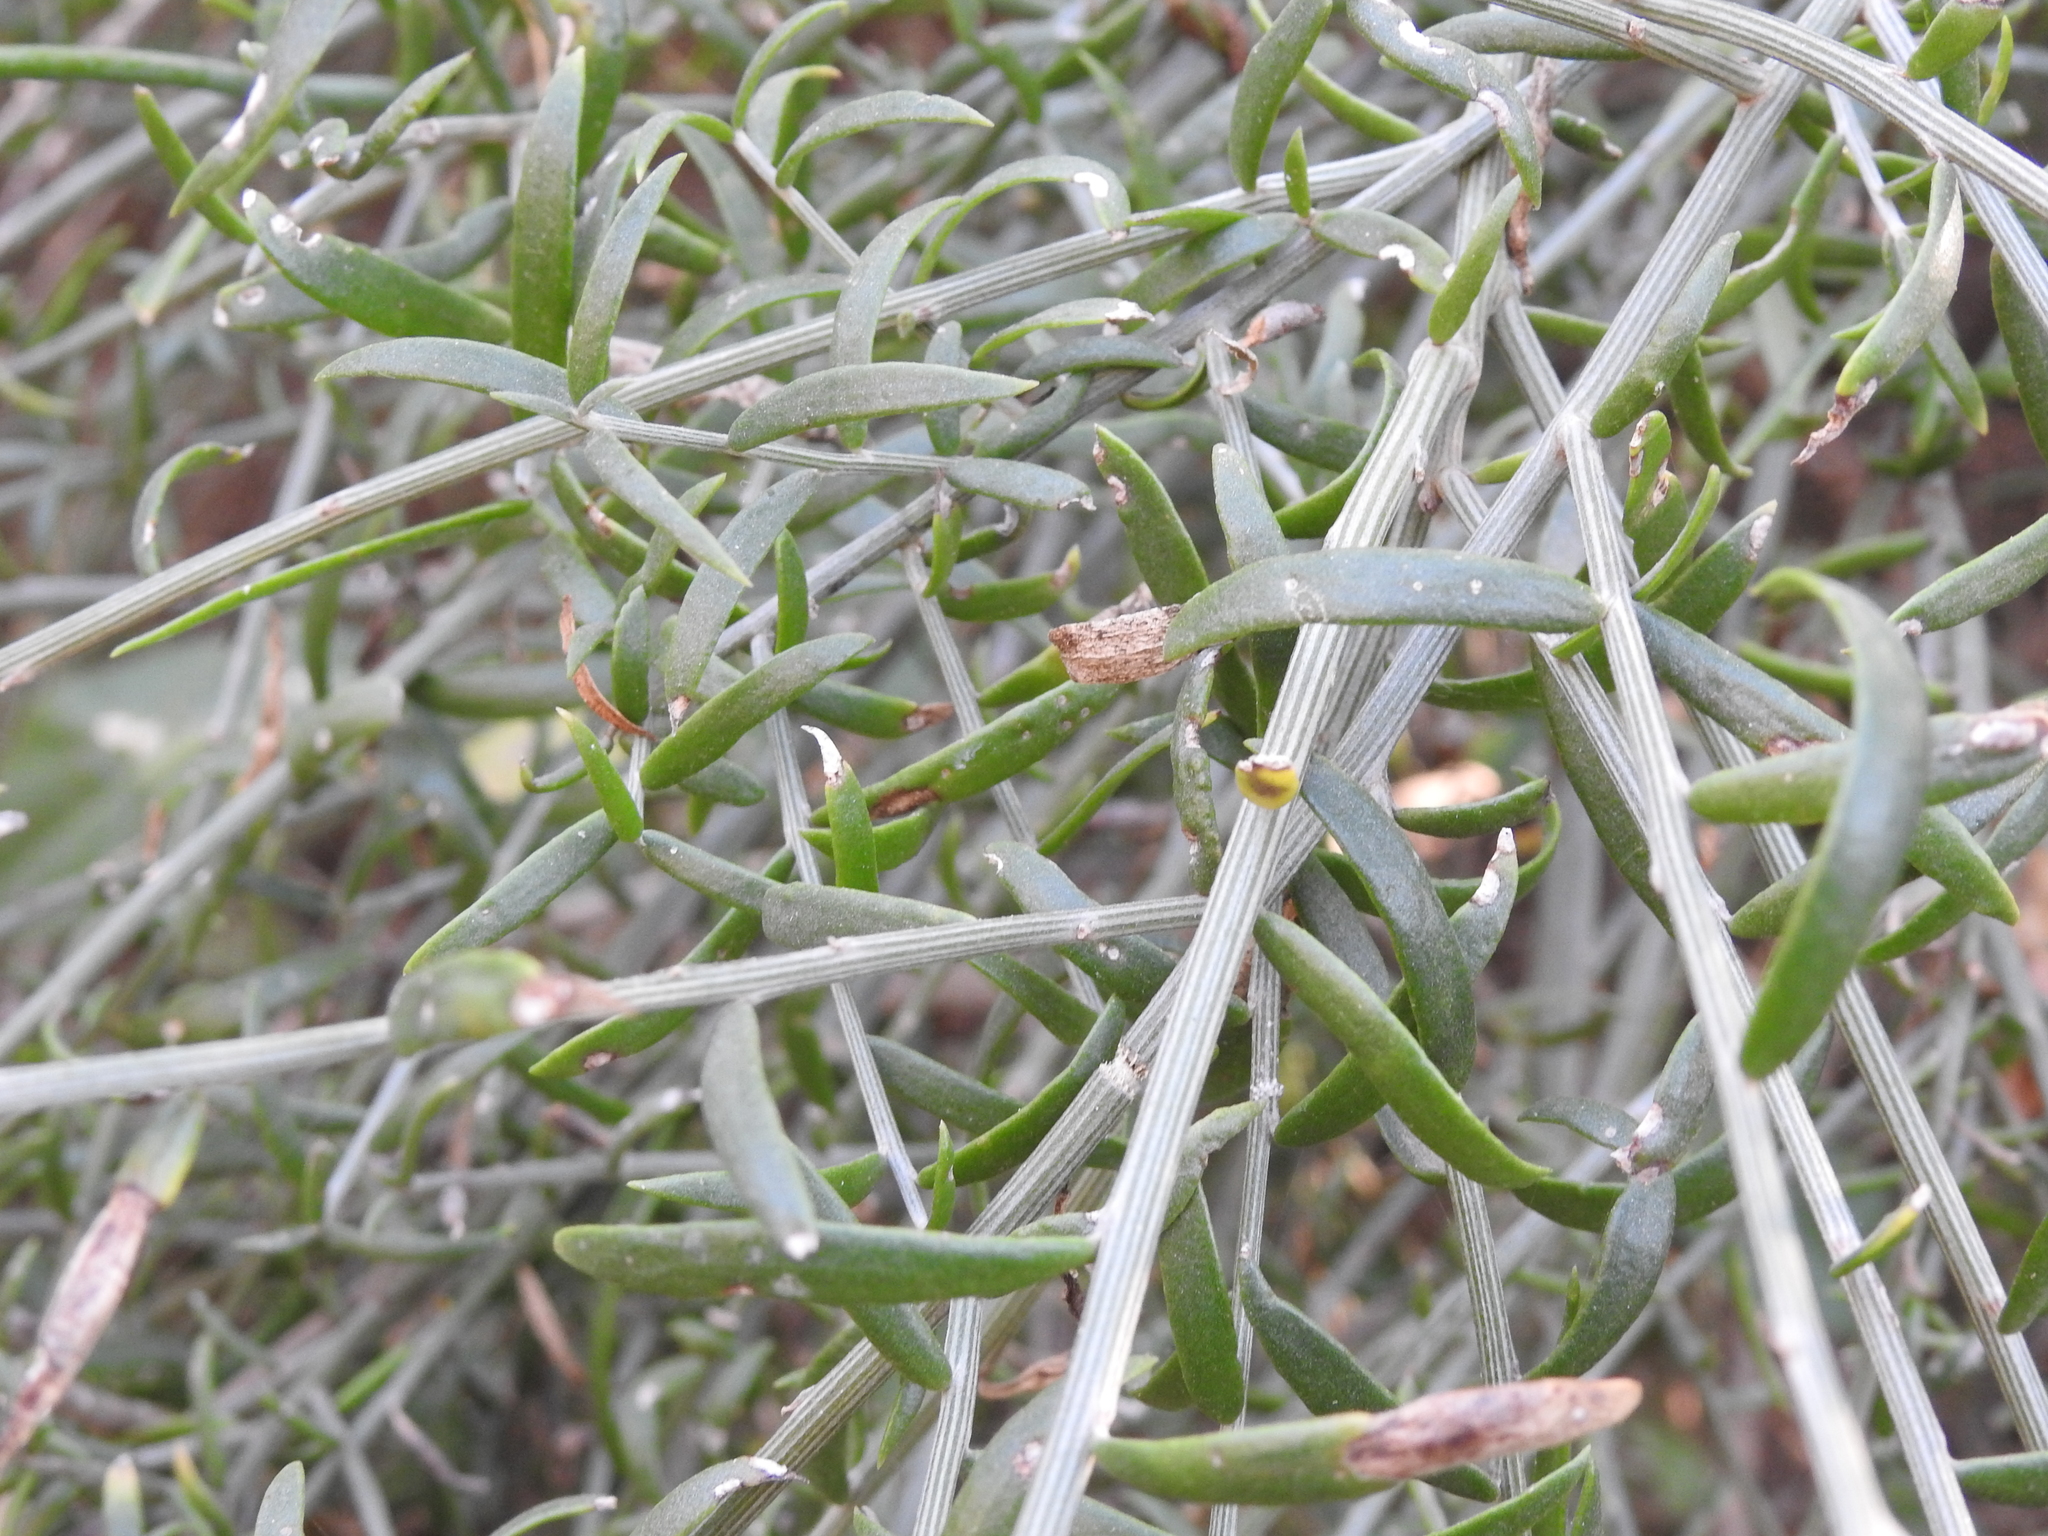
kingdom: Plantae
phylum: Tracheophyta
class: Magnoliopsida
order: Asterales
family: Asteraceae
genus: Cyclolepis
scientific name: Cyclolepis genistoides
